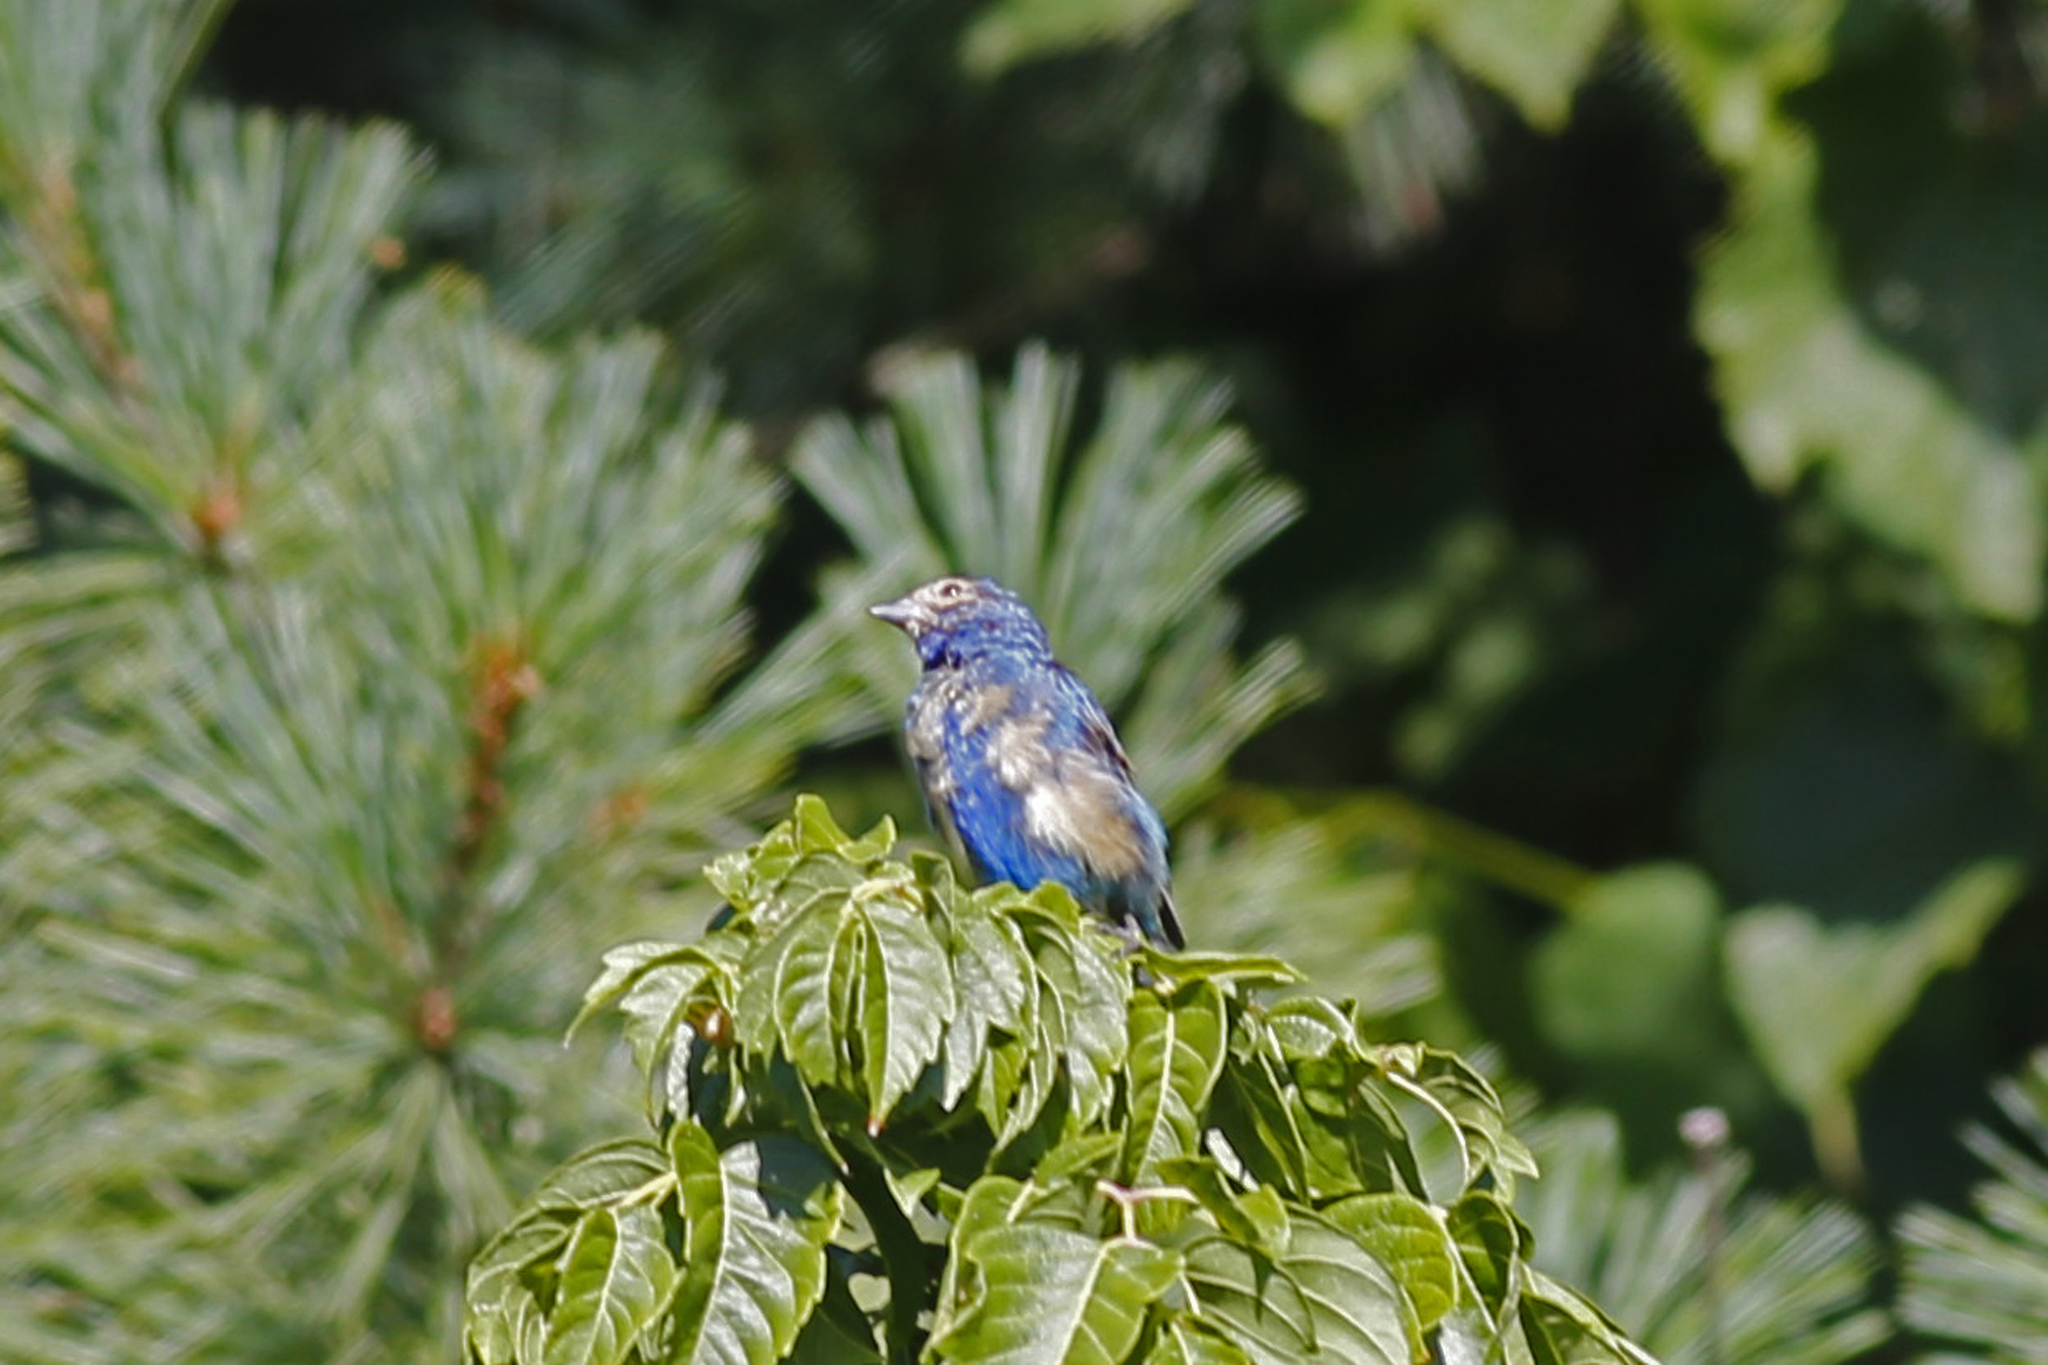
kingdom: Animalia
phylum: Chordata
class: Aves
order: Passeriformes
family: Cardinalidae
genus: Passerina
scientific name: Passerina cyanea
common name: Indigo bunting
